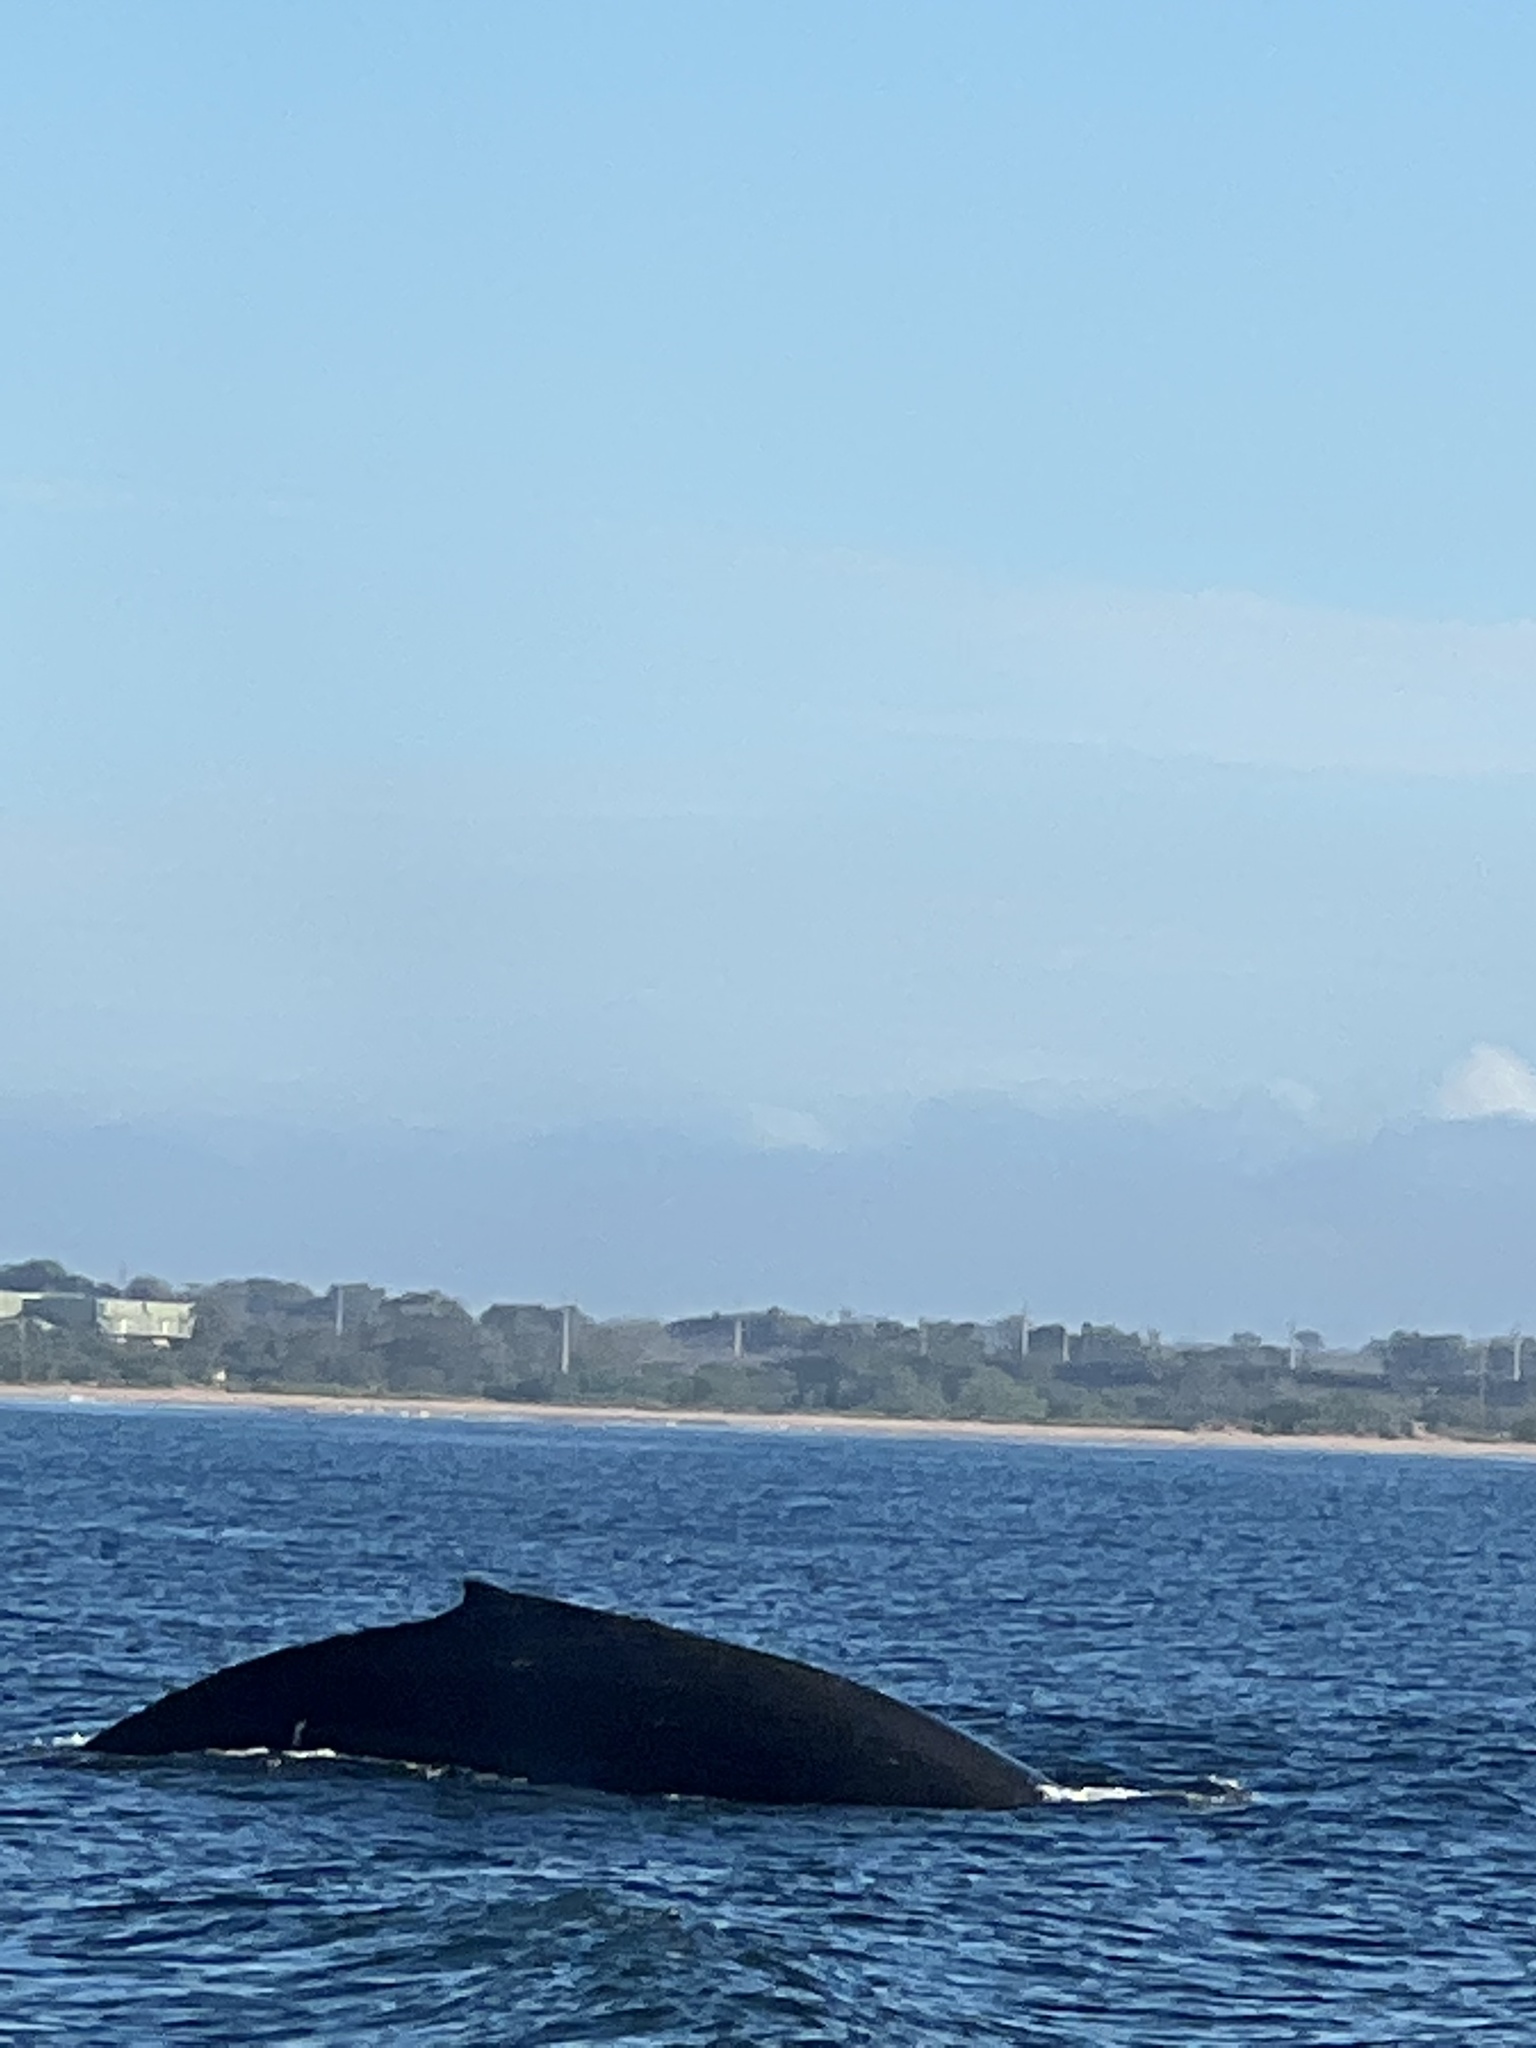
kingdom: Animalia
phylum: Chordata
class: Mammalia
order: Cetacea
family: Balaenopteridae
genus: Megaptera
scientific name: Megaptera novaeangliae
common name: Humpback whale
